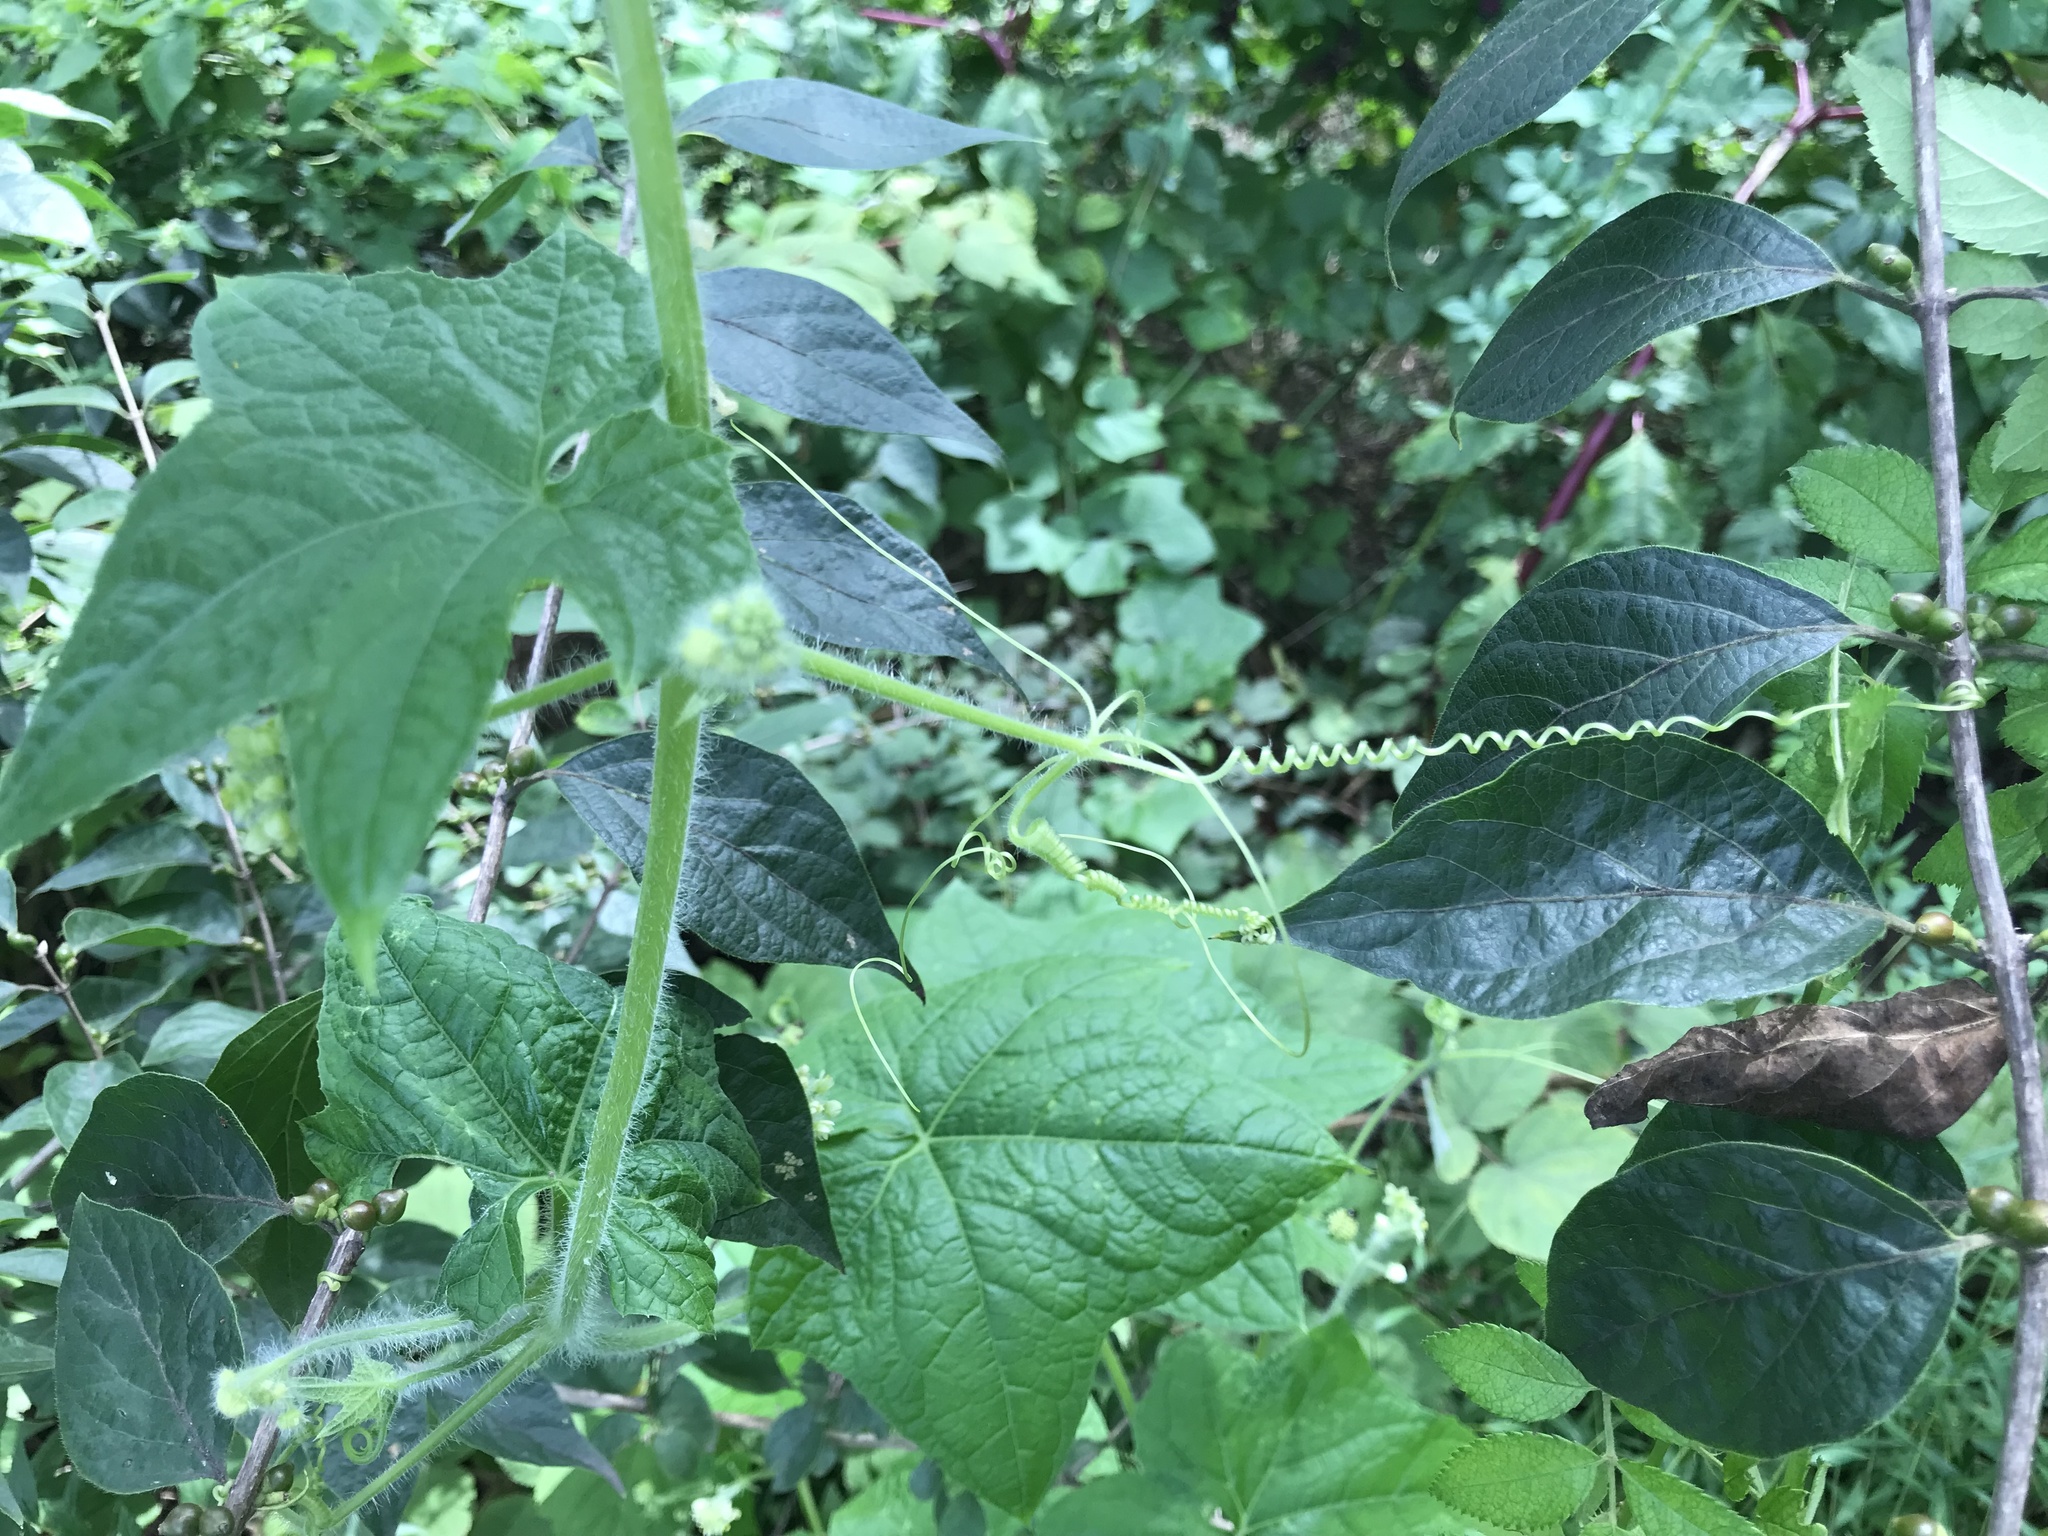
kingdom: Plantae
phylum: Tracheophyta
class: Magnoliopsida
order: Cucurbitales
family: Cucurbitaceae
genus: Sicyos
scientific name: Sicyos angulatus
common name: Angled burr cucumber
